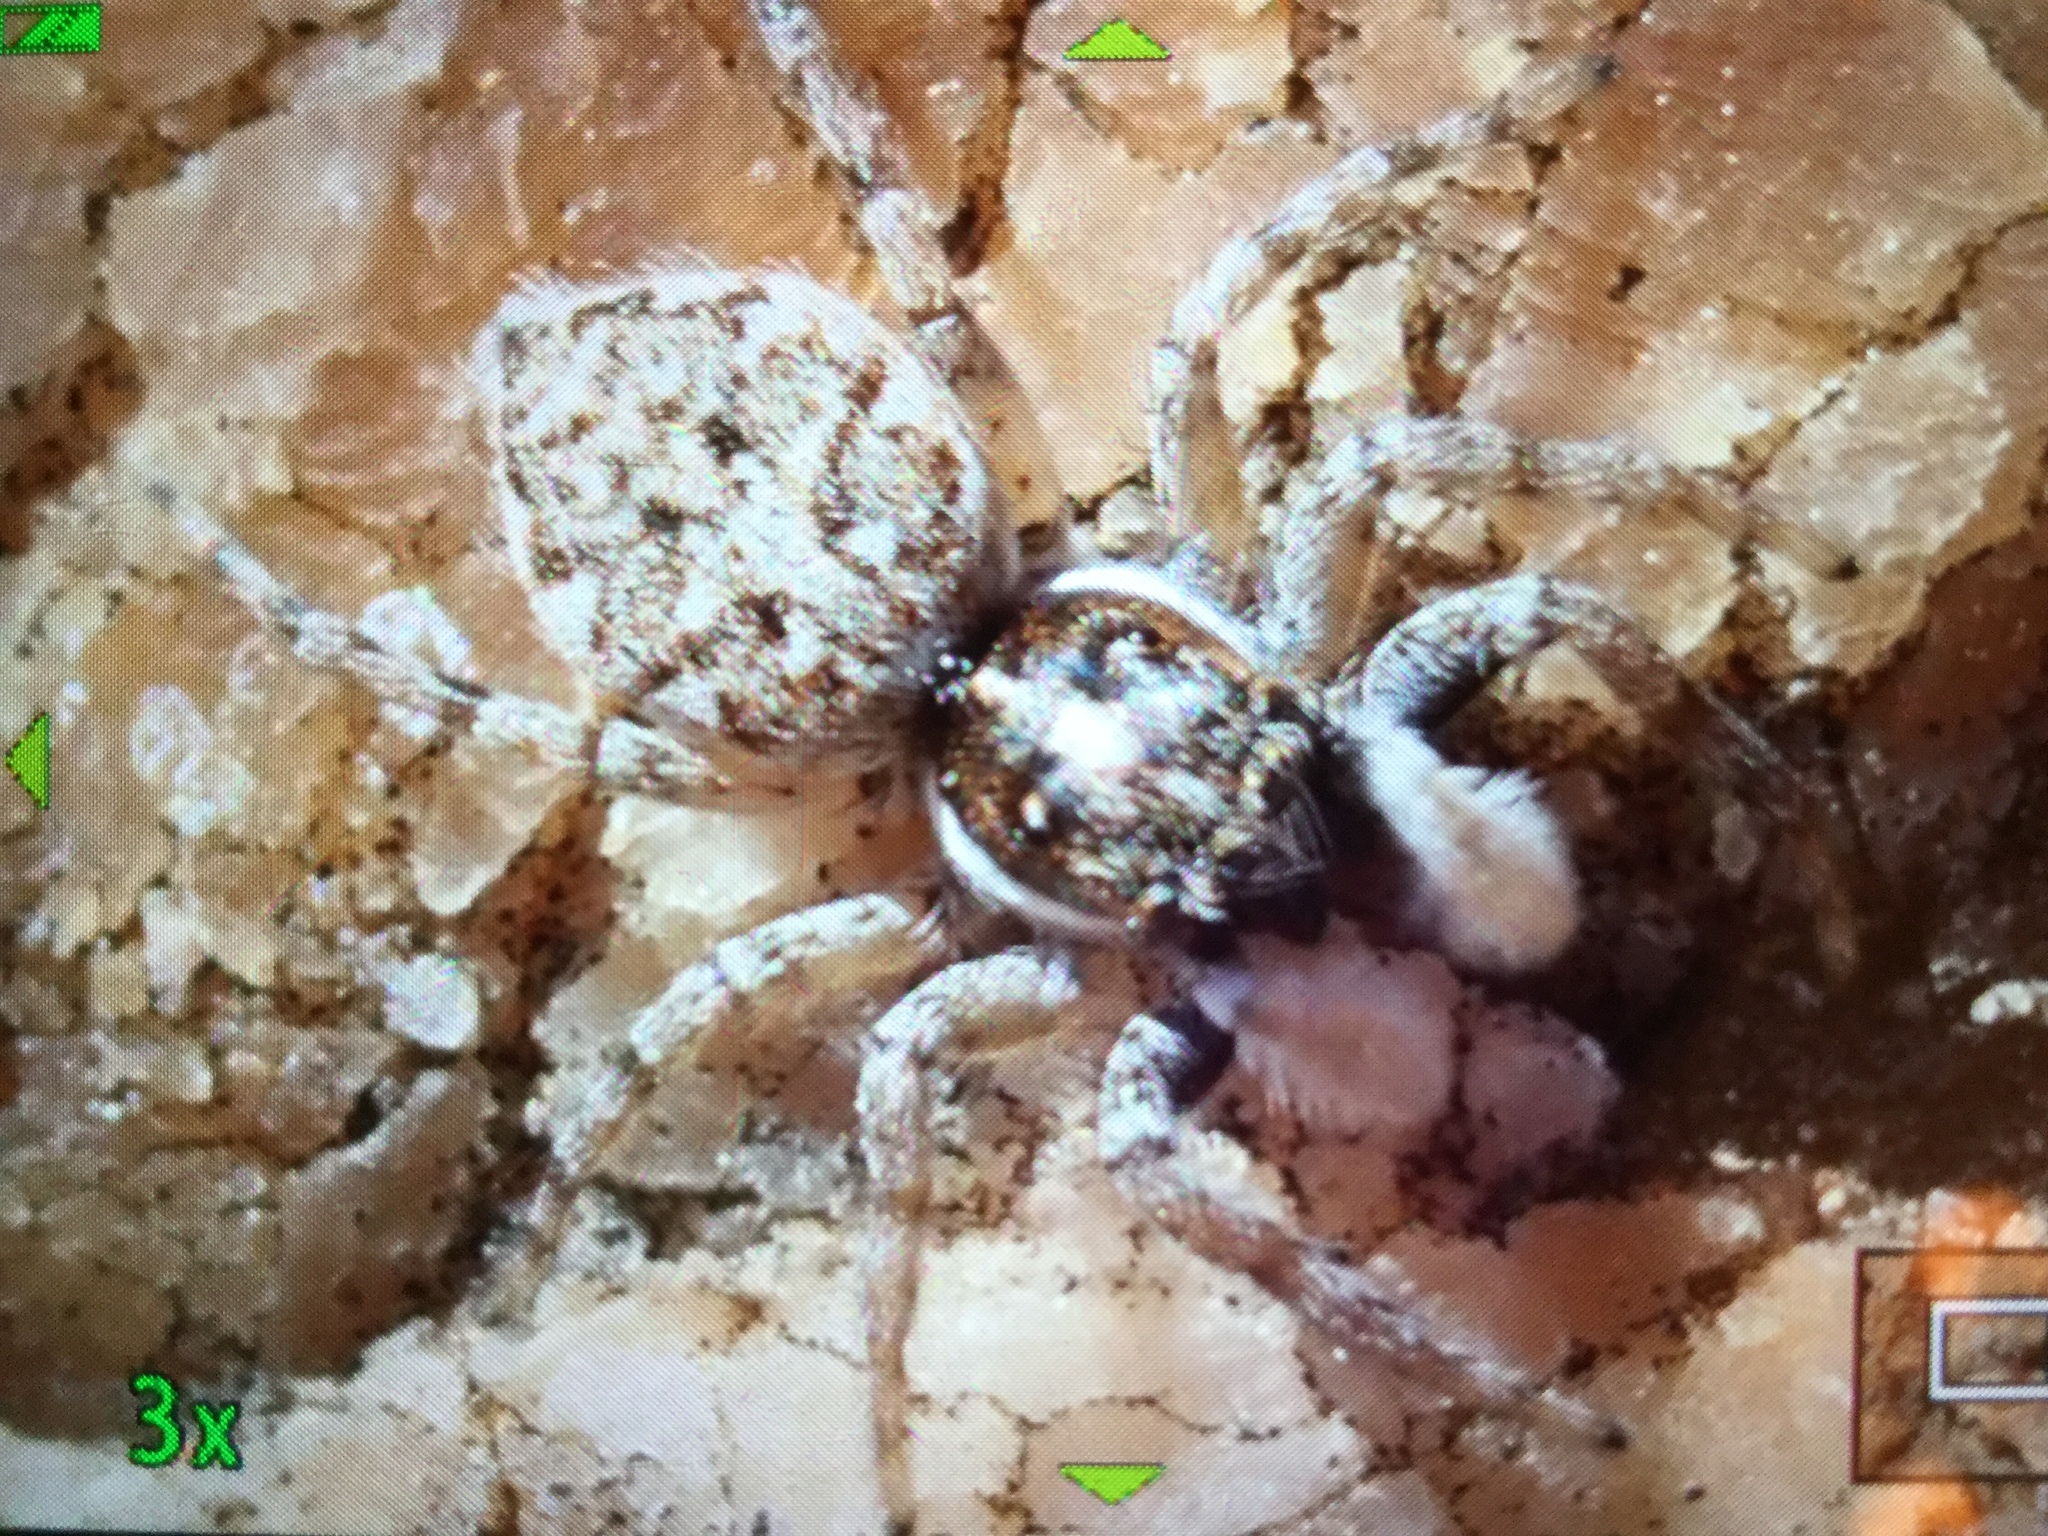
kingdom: Animalia
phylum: Arthropoda
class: Arachnida
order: Araneae
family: Salticidae
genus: Menemerus
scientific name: Menemerus semilimbatus
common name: Jumping spider
